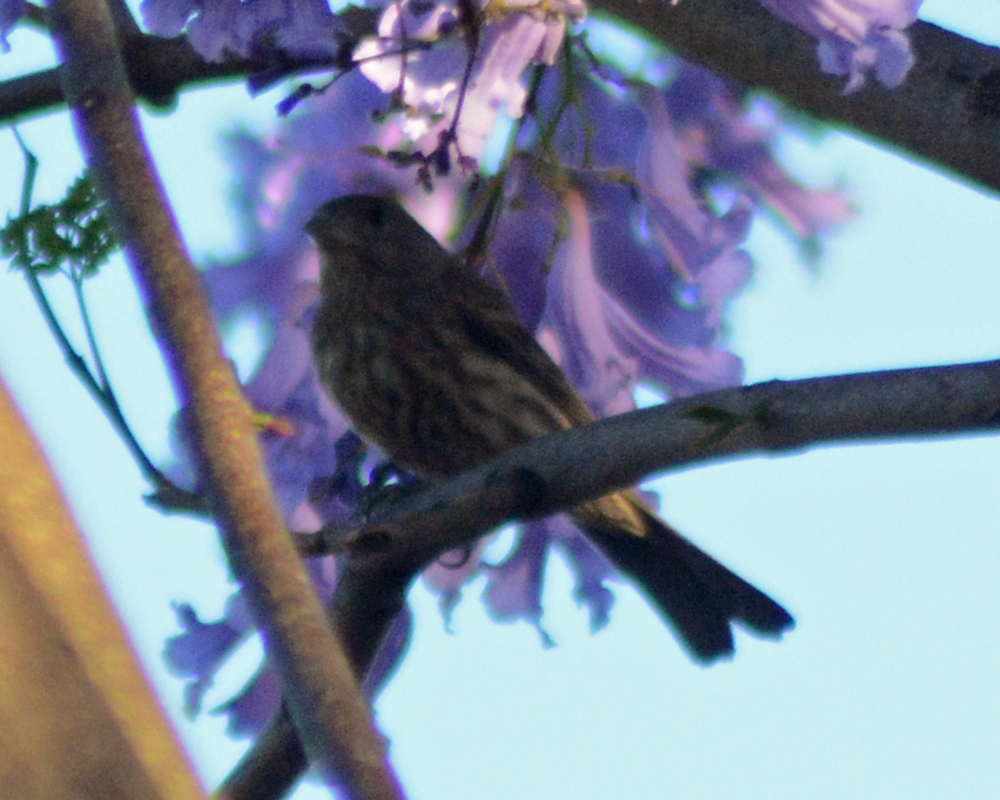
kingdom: Animalia
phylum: Chordata
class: Aves
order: Passeriformes
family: Fringillidae
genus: Haemorhous
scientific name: Haemorhous mexicanus
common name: House finch
